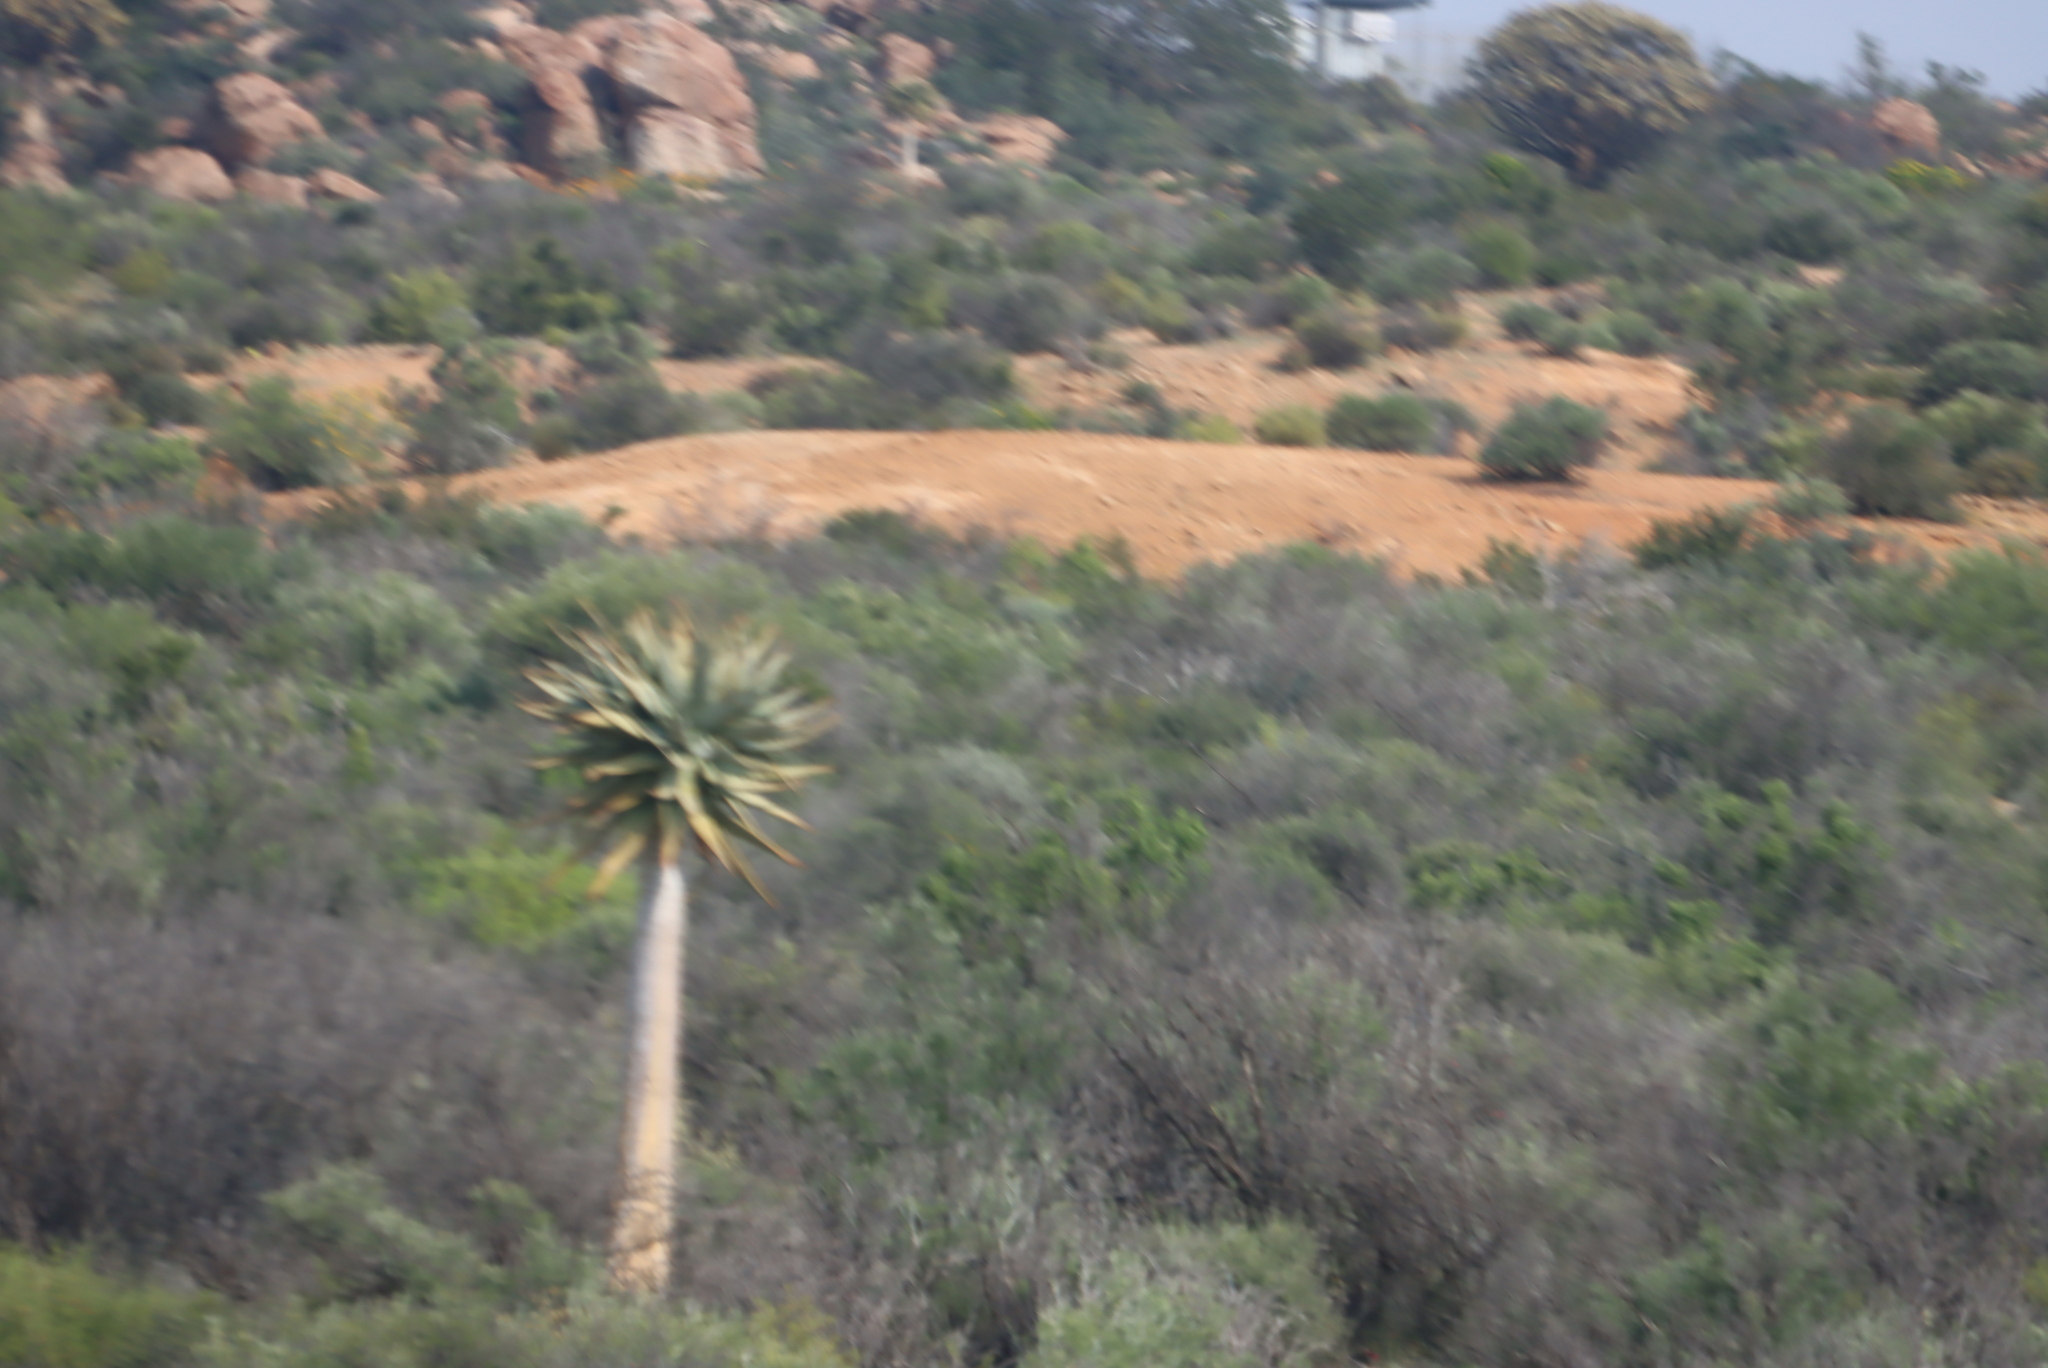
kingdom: Plantae
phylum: Tracheophyta
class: Liliopsida
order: Asparagales
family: Asphodelaceae
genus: Aloidendron
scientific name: Aloidendron dichotomum
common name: Quiver tree
